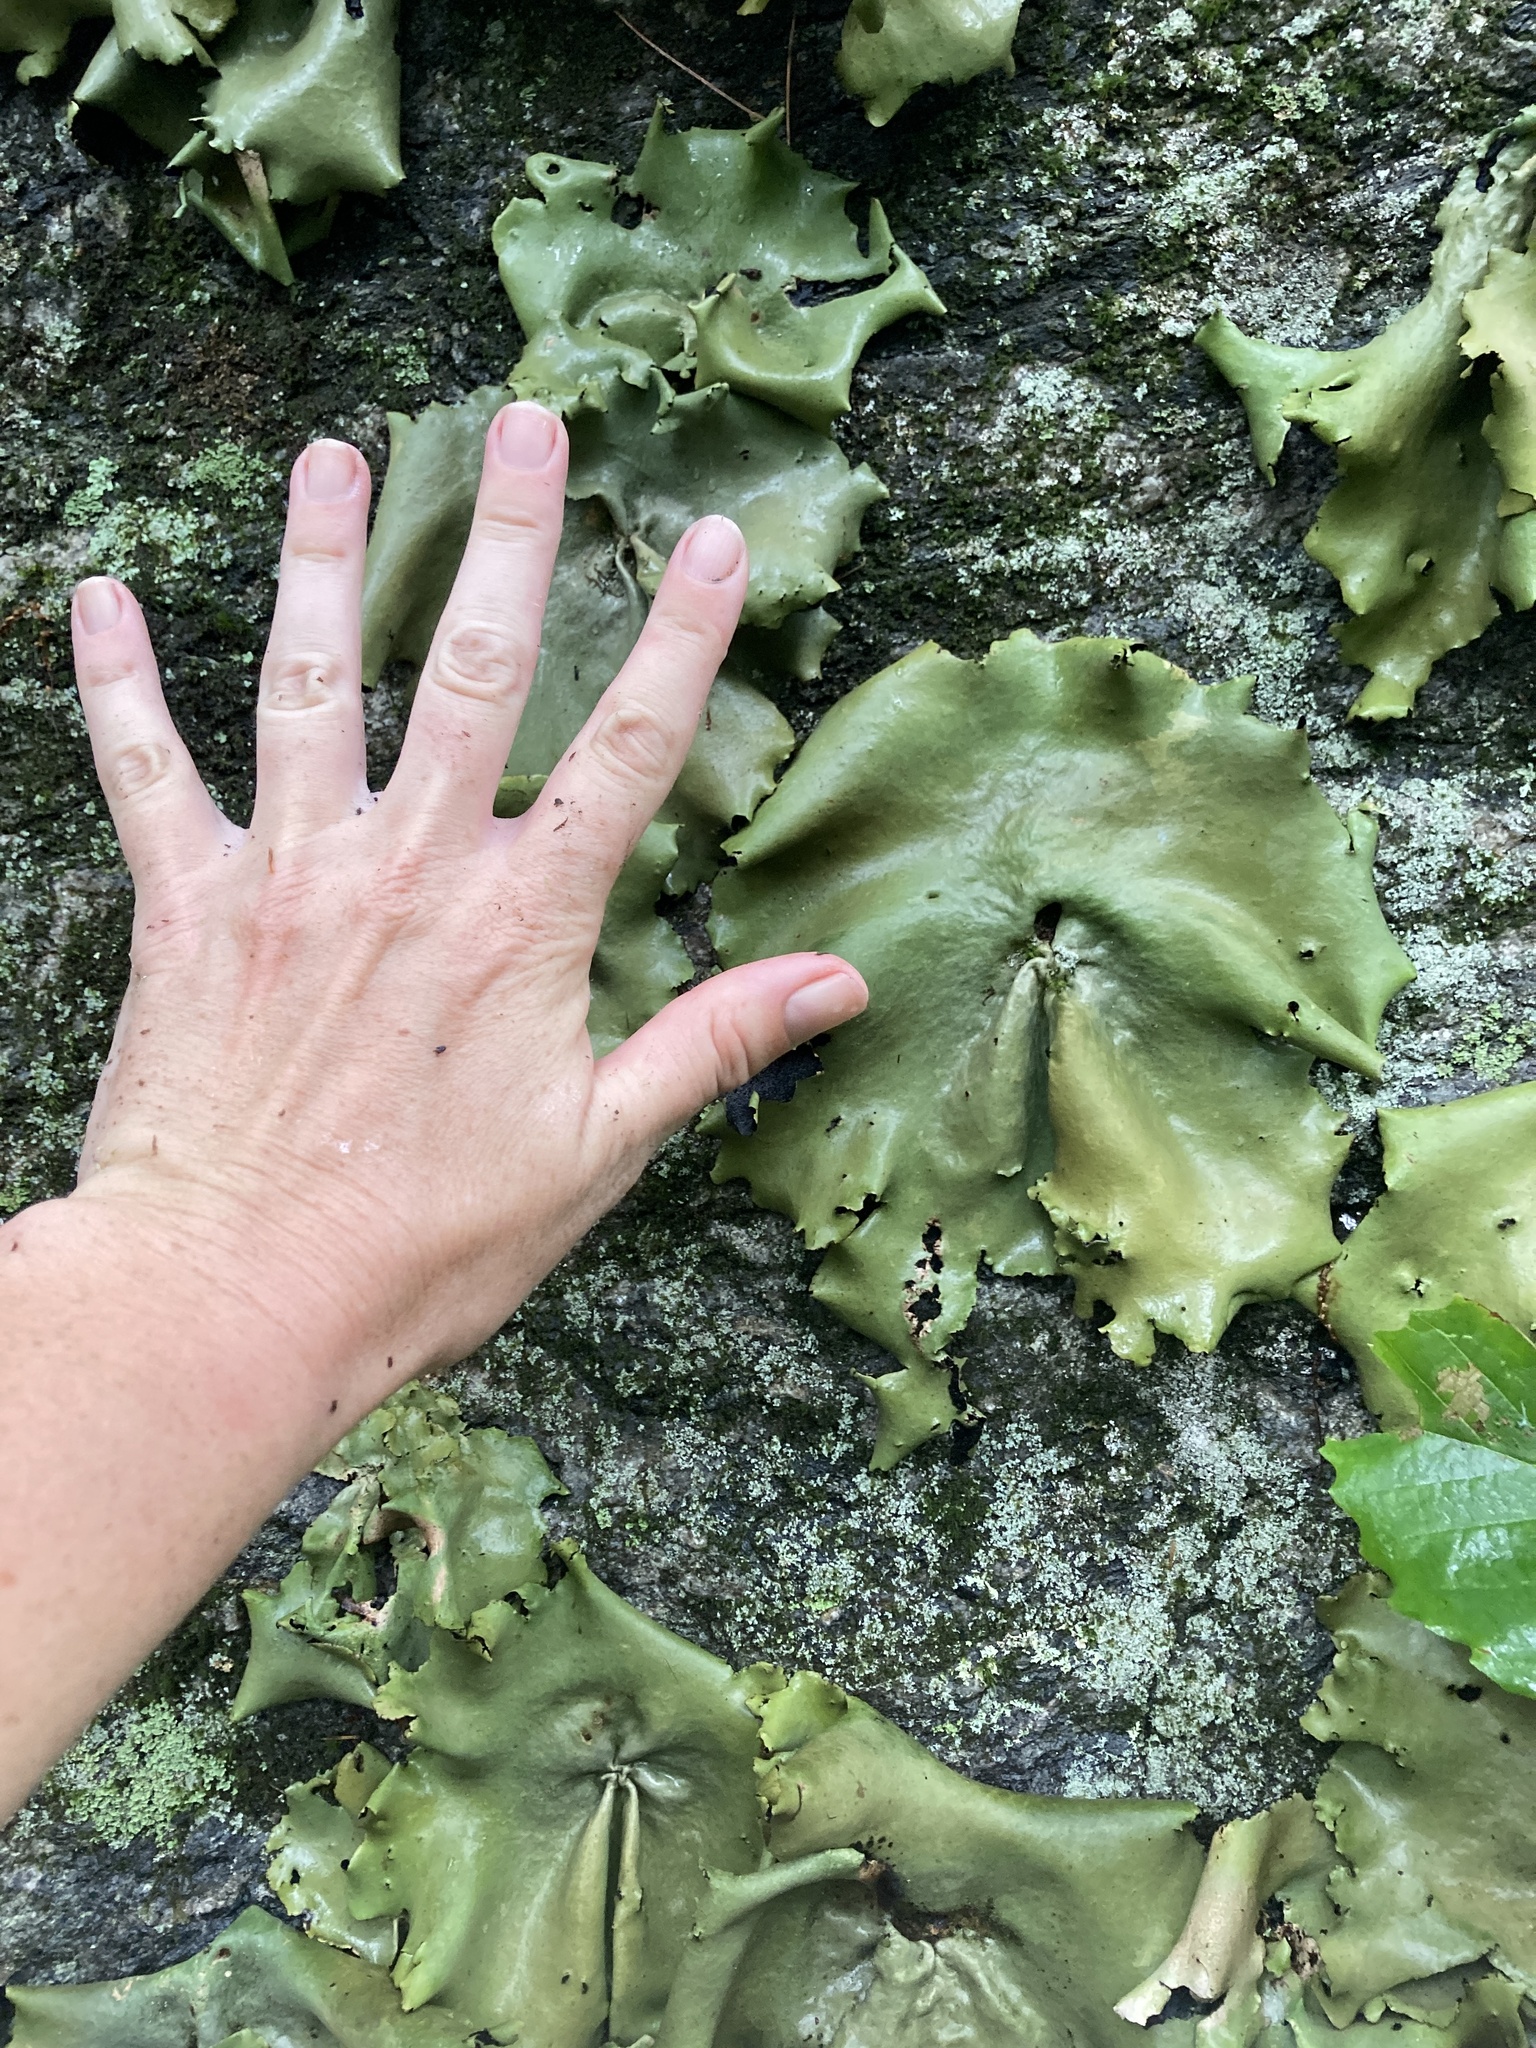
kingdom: Fungi
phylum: Ascomycota
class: Lecanoromycetes
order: Umbilicariales
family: Umbilicariaceae
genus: Umbilicaria
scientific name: Umbilicaria mammulata
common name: Smooth rock tripe
